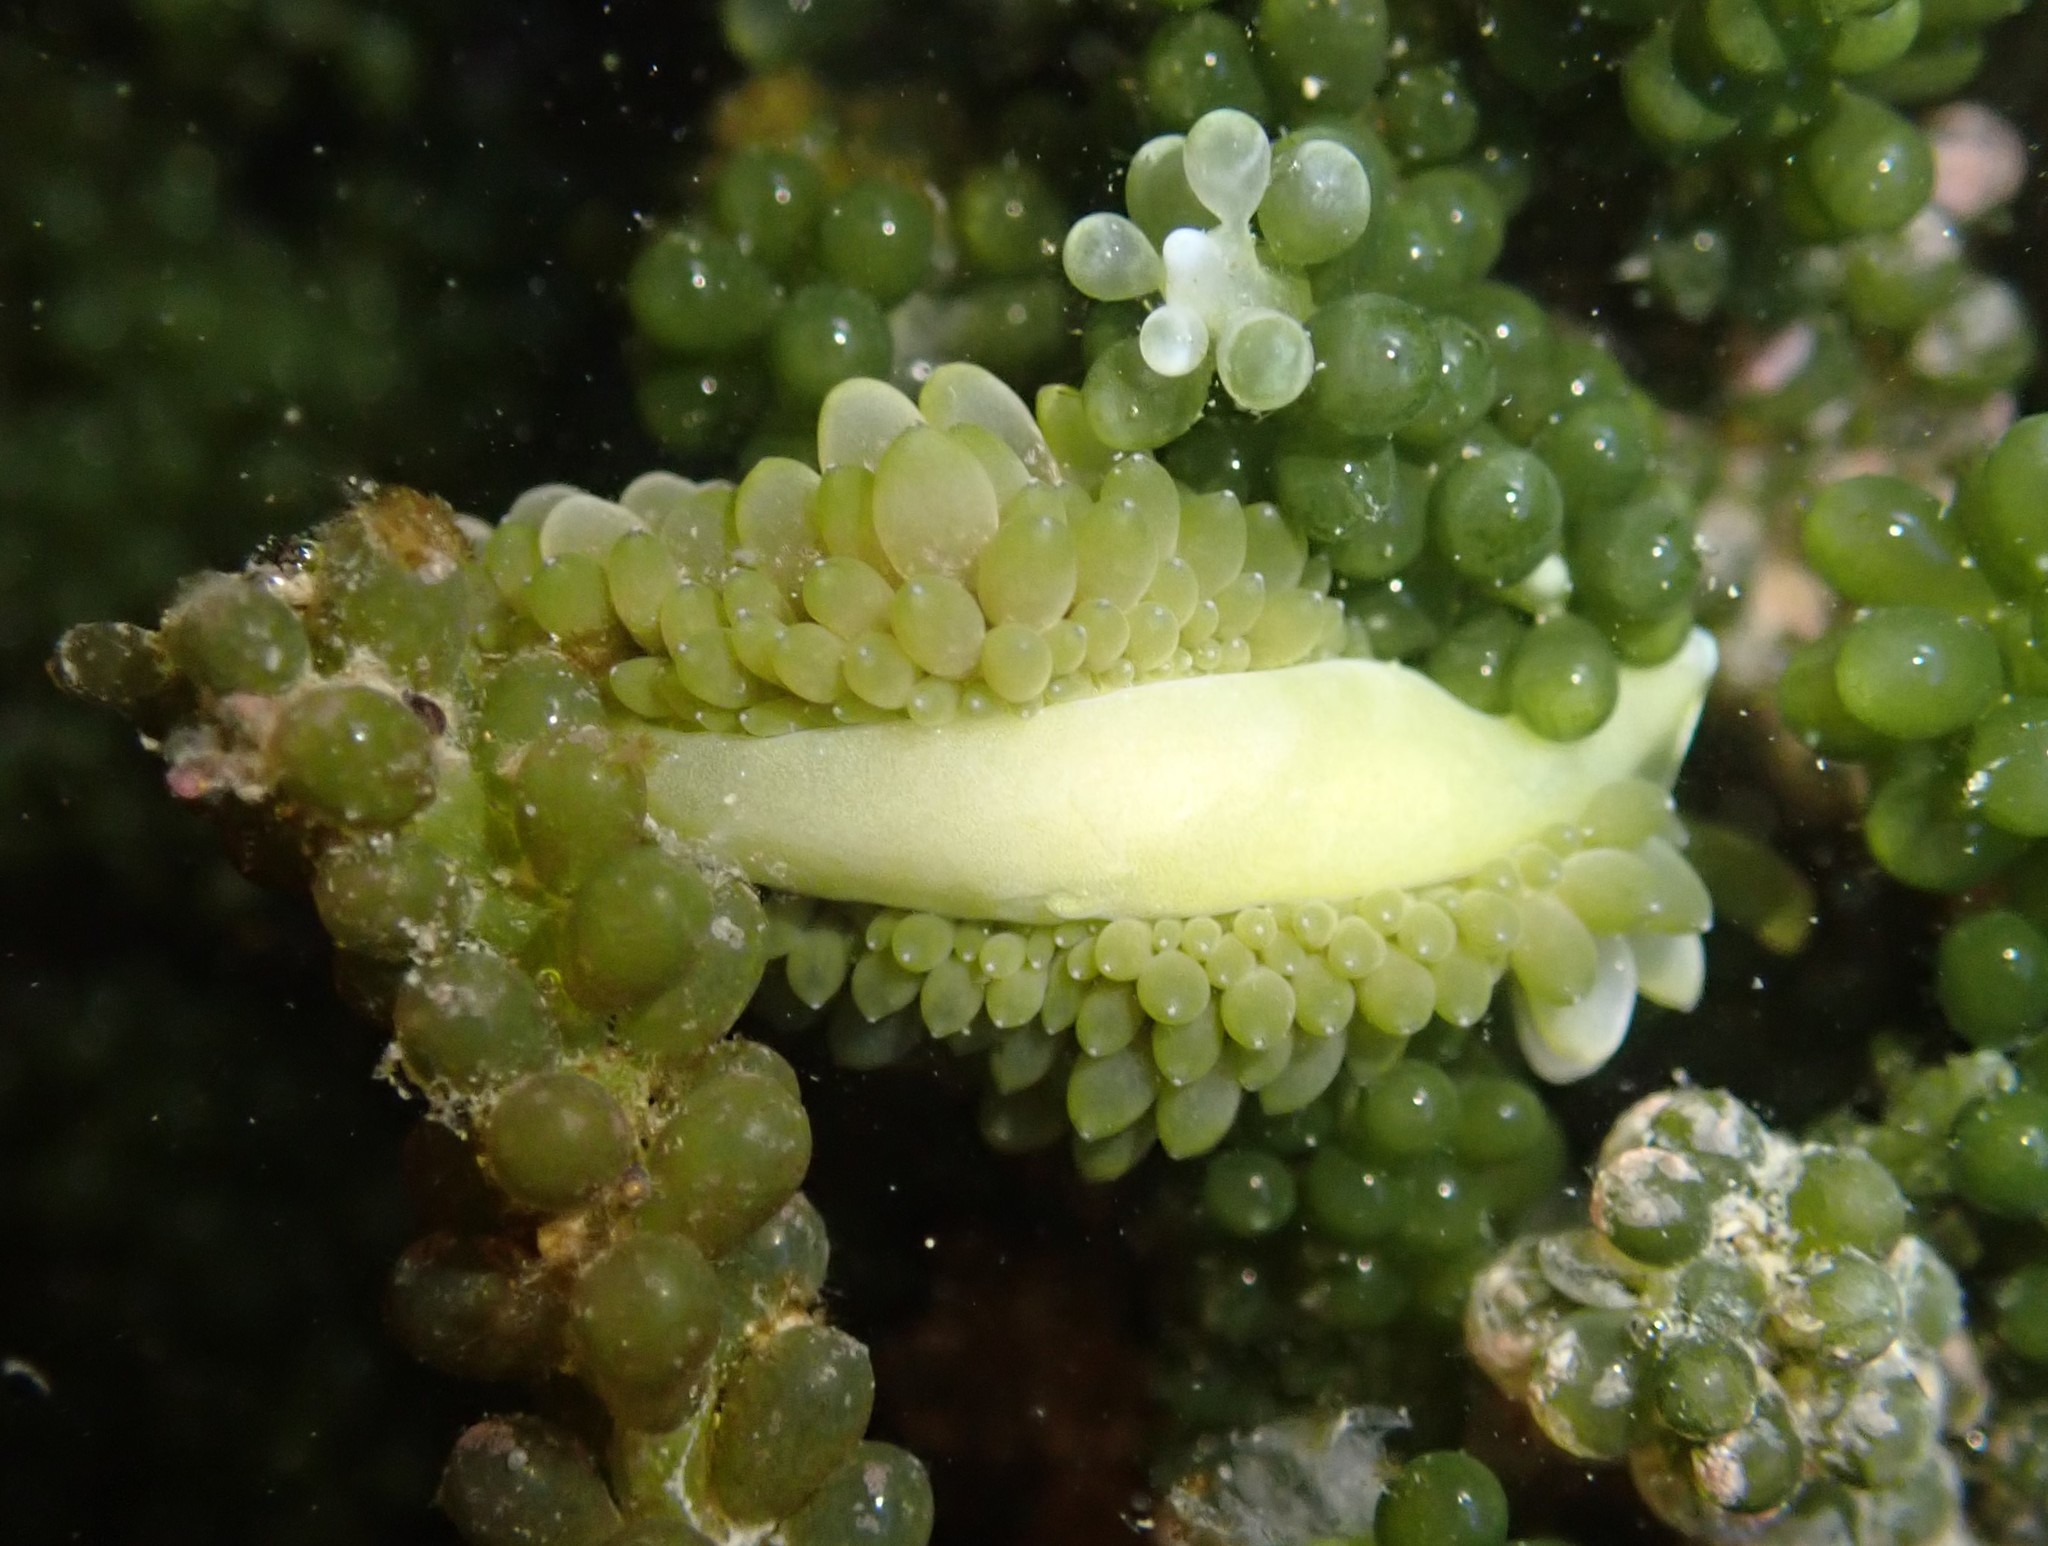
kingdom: Animalia
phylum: Mollusca
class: Gastropoda
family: Limapontiidae
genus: Sacoproteus
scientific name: Sacoproteus smaragdinus
